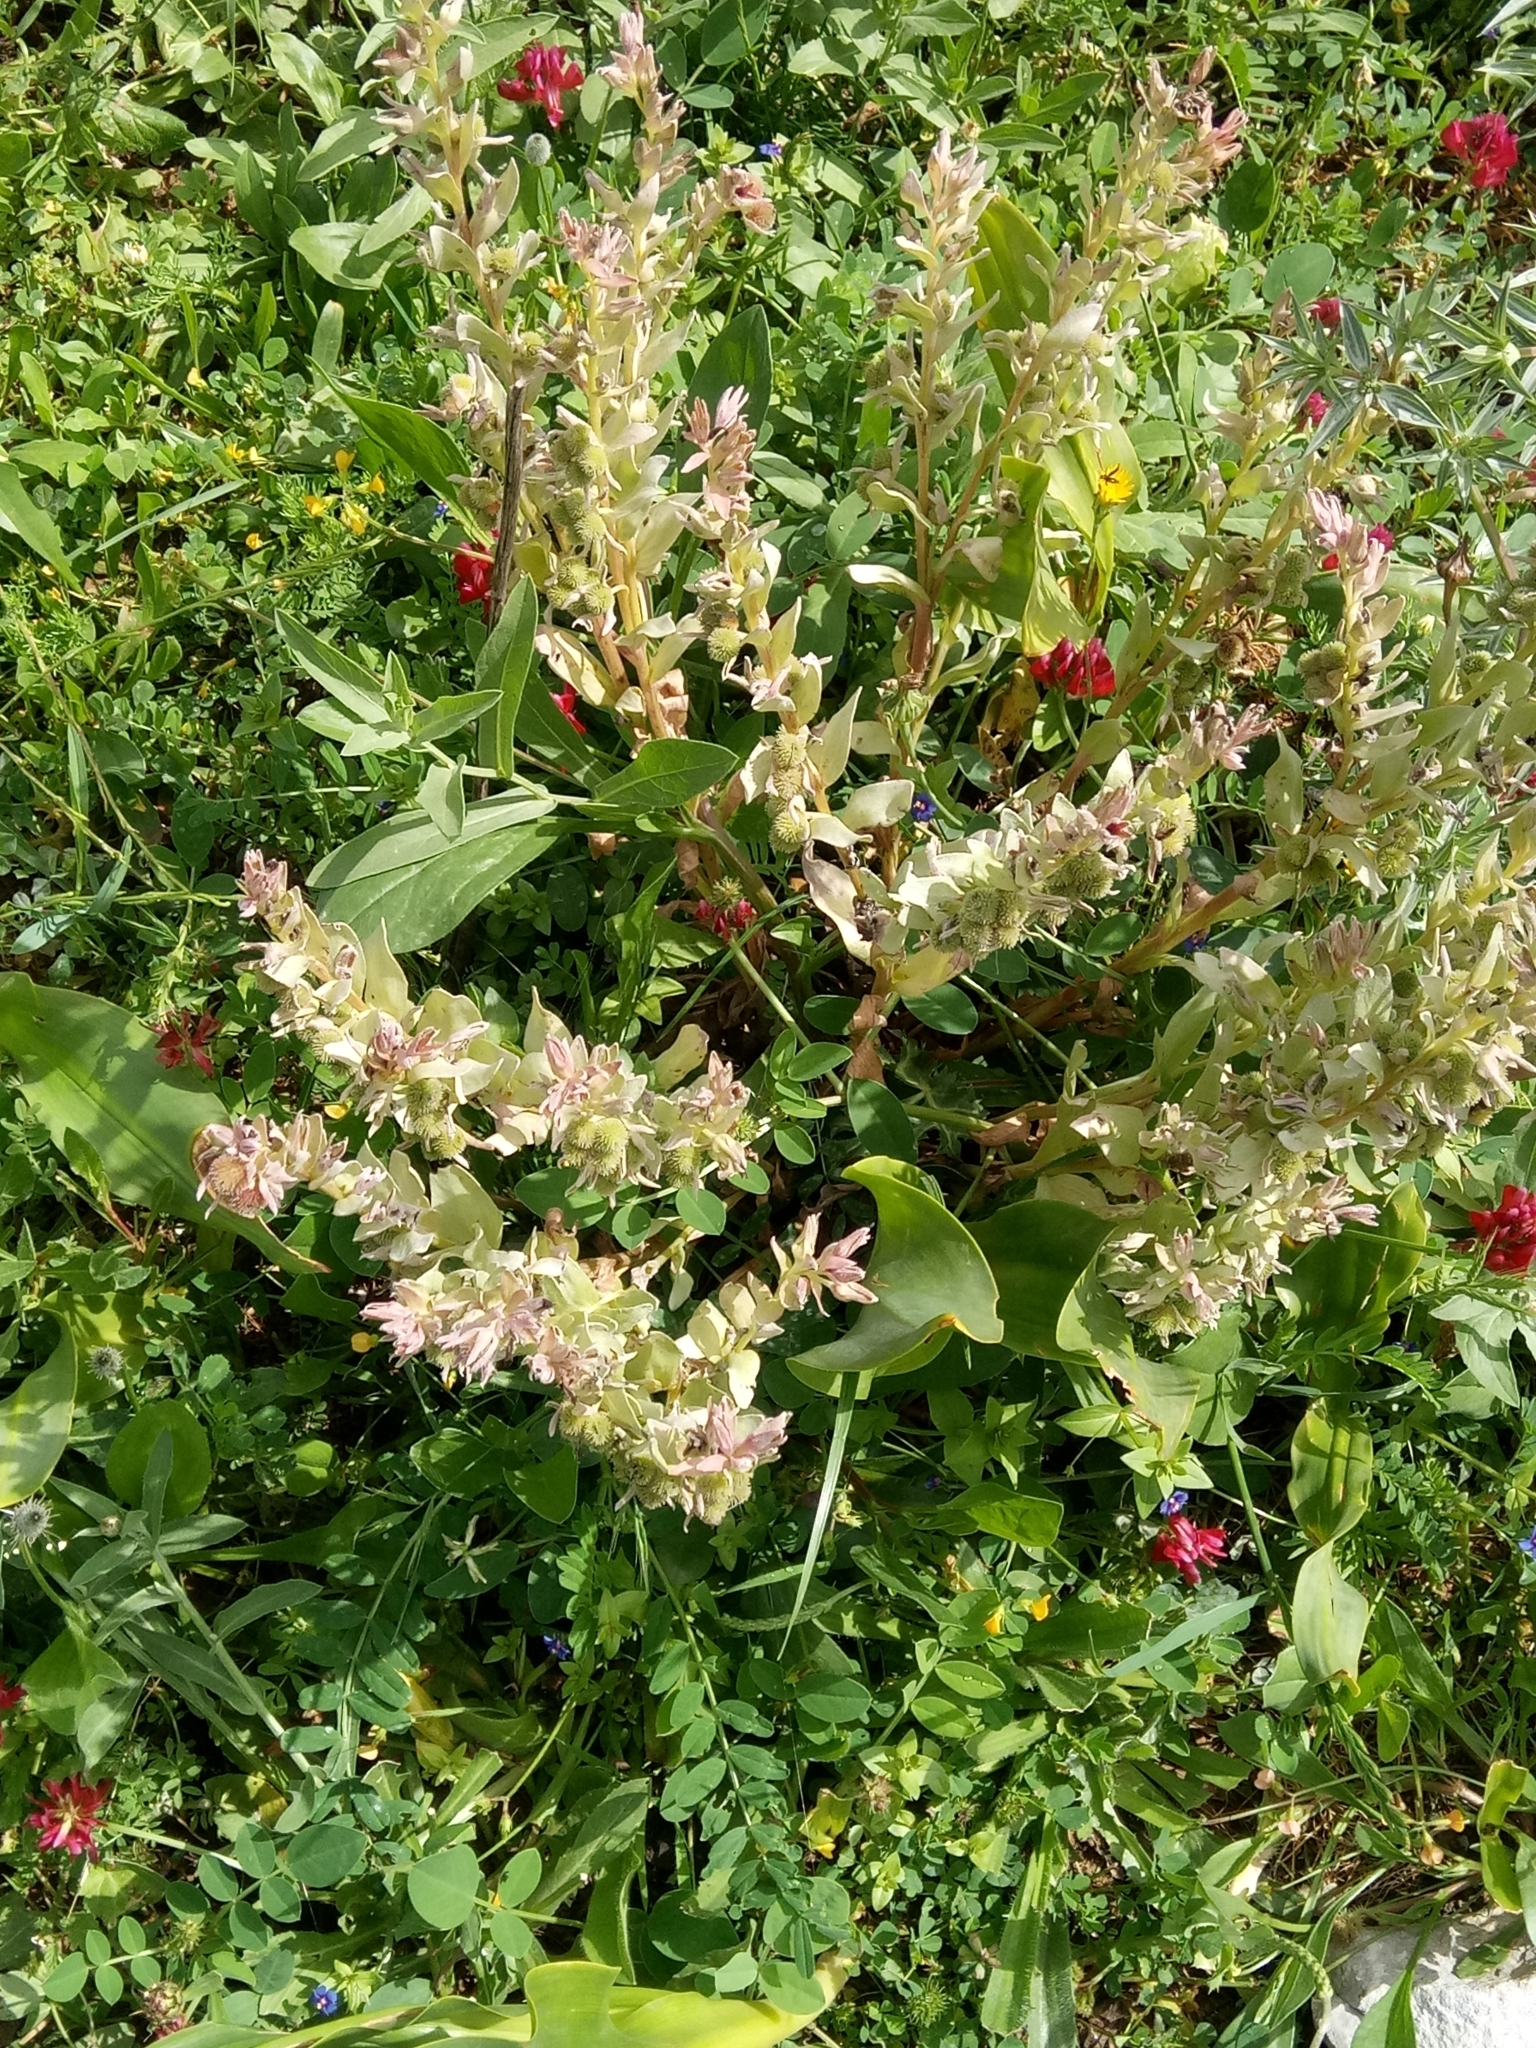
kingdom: Plantae
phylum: Tracheophyta
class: Magnoliopsida
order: Boraginales
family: Boraginaceae
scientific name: Boraginaceae
